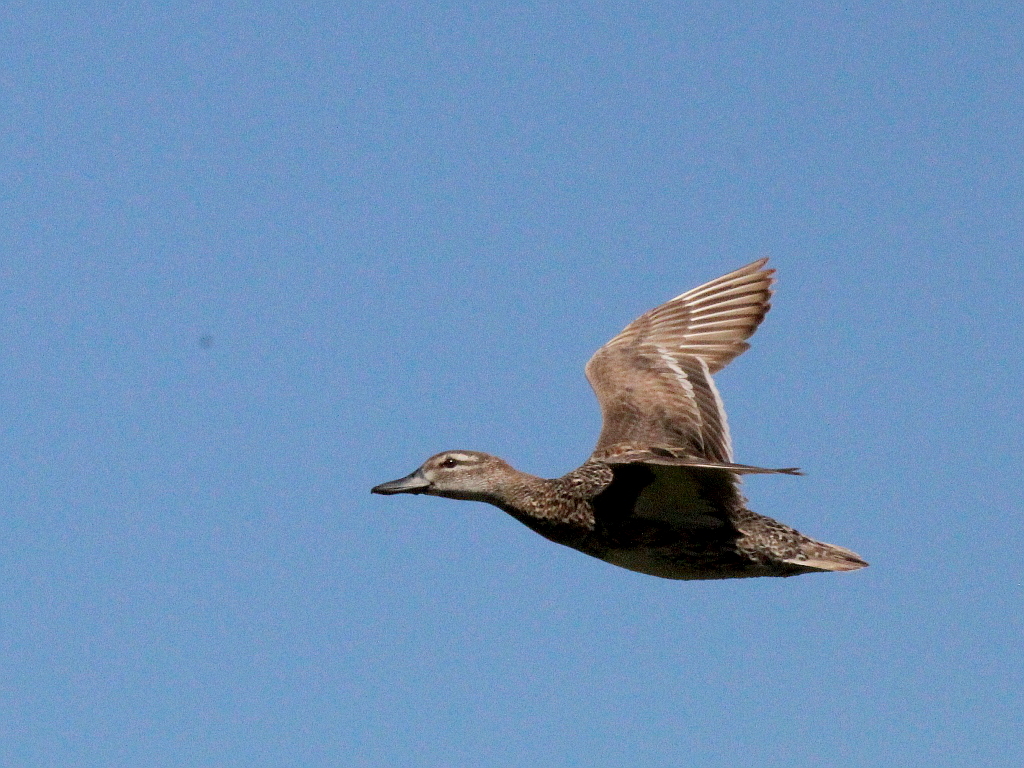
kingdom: Animalia
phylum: Chordata
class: Aves
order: Anseriformes
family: Anatidae
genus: Spatula
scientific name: Spatula querquedula
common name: Garganey
